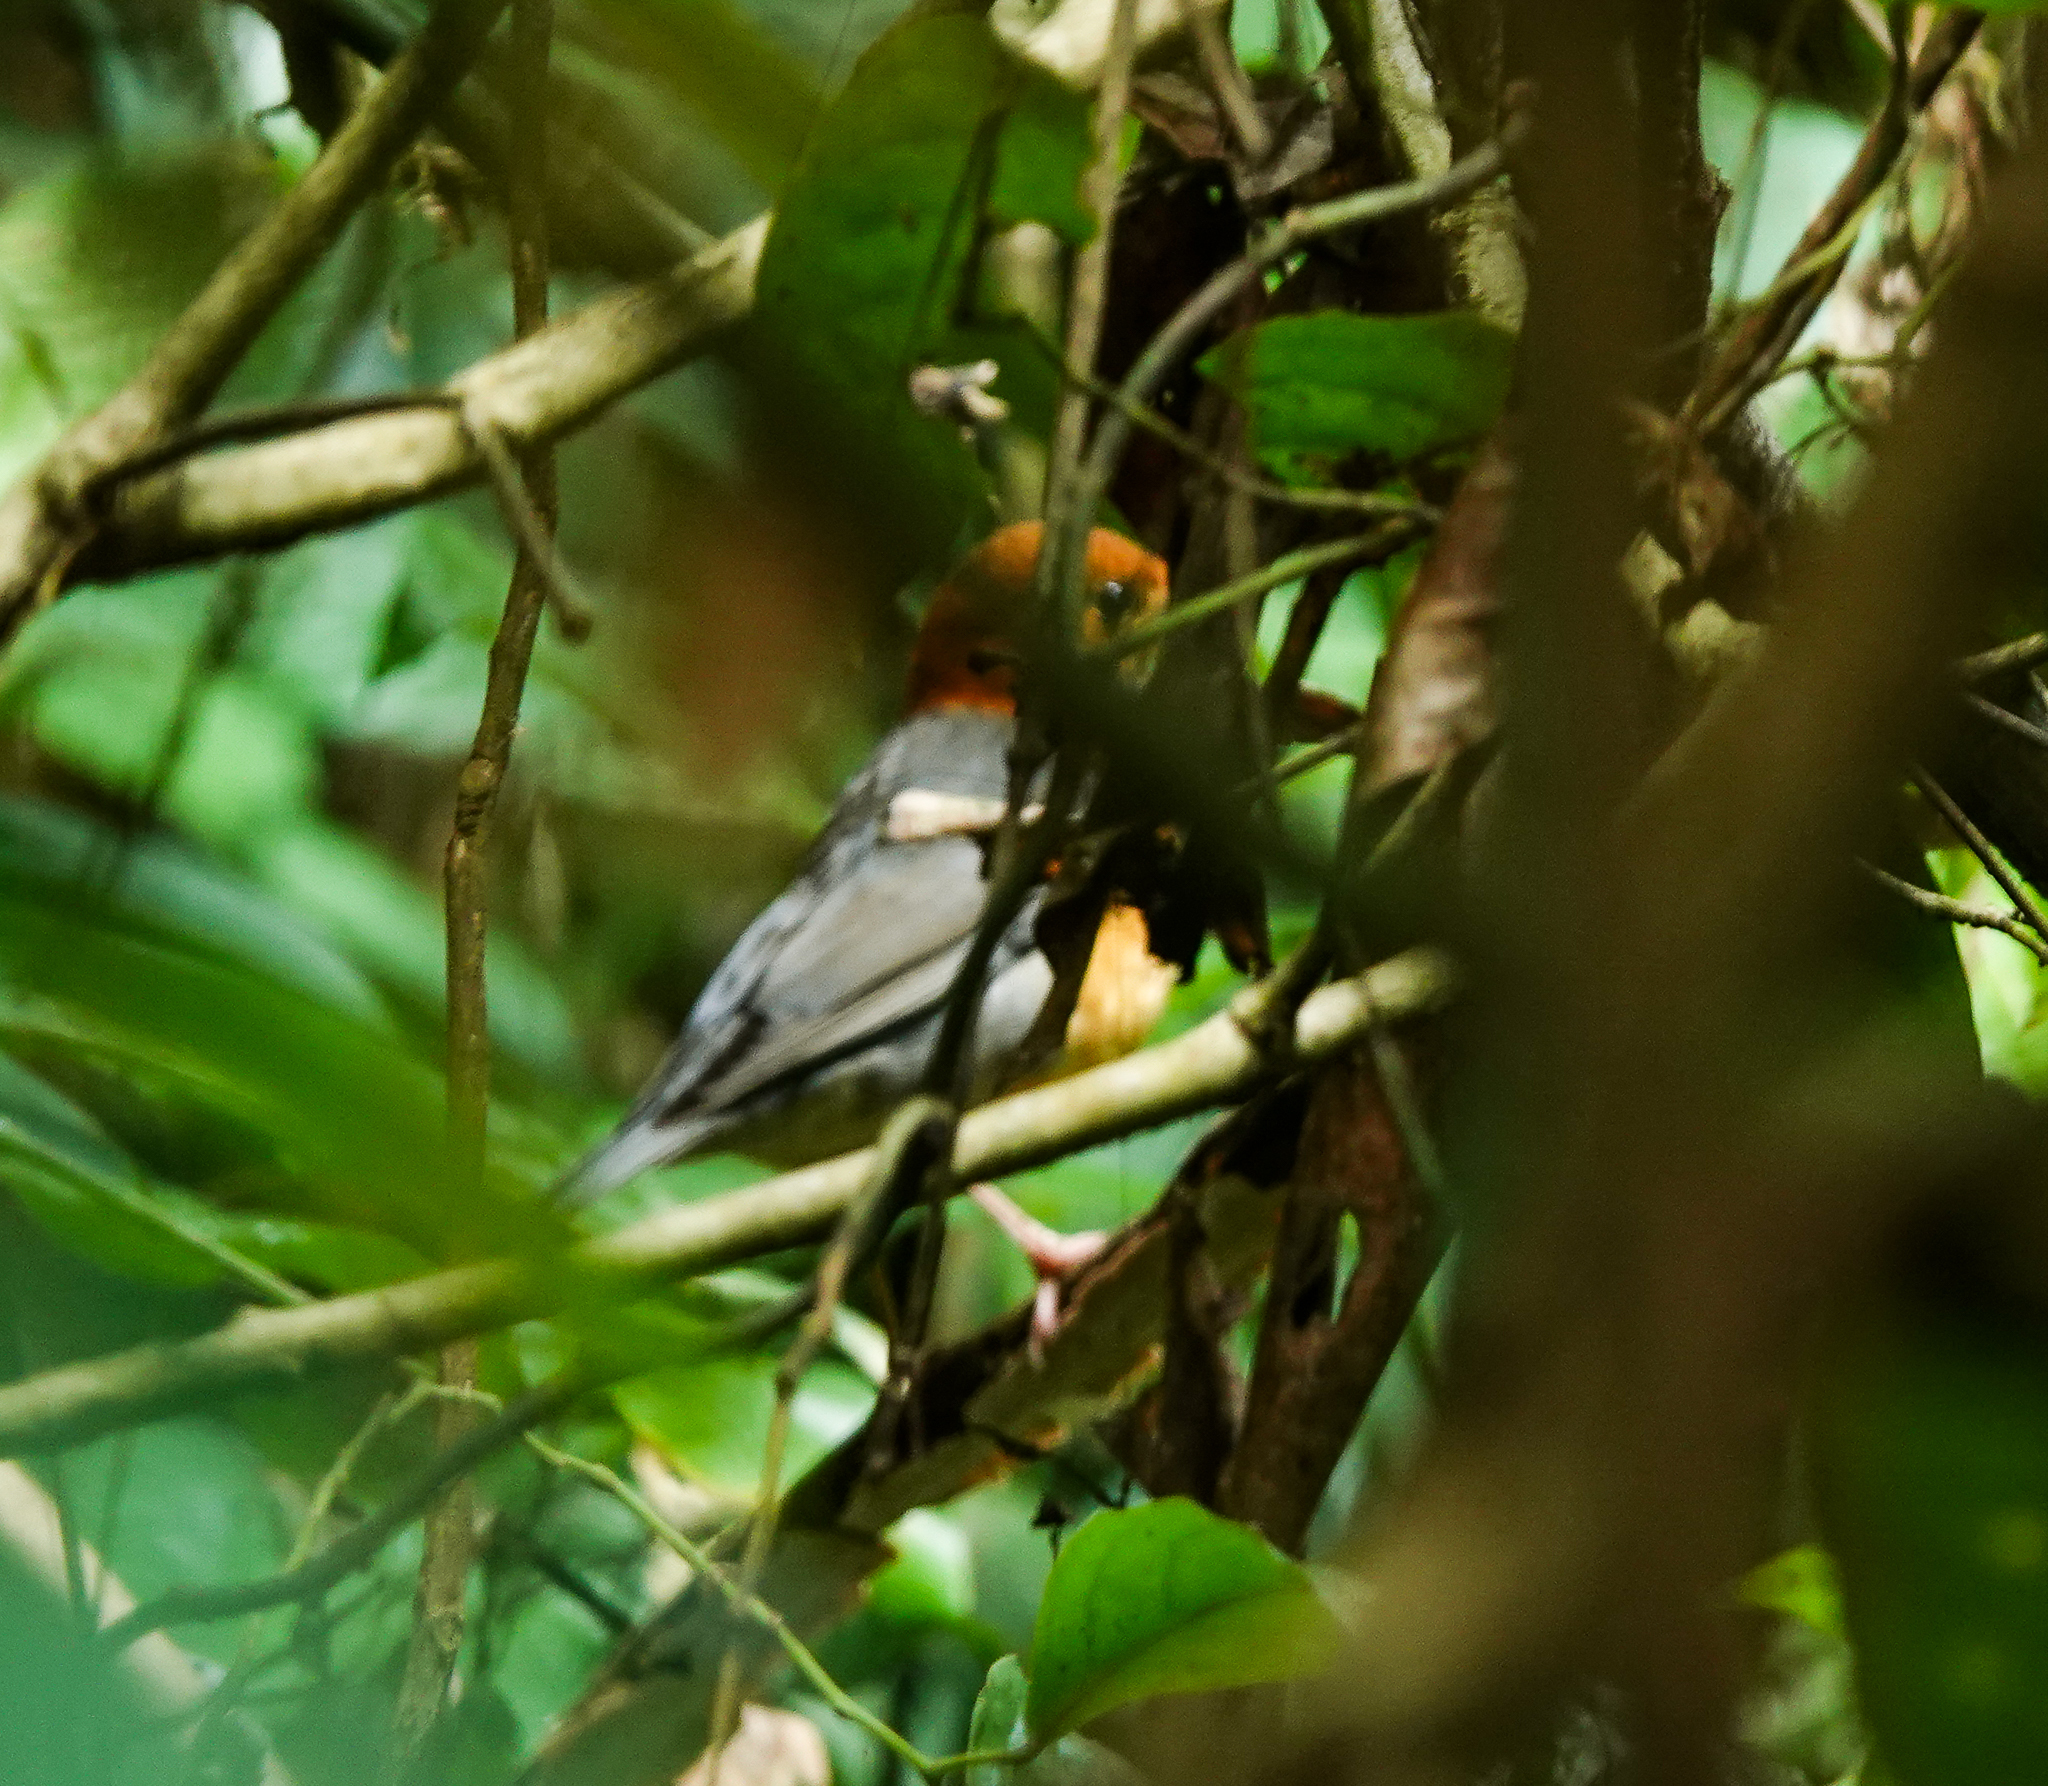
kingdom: Animalia
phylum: Chordata
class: Aves
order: Passeriformes
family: Turdidae
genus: Geokichla
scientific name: Geokichla citrina
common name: Orange-headed thrush
